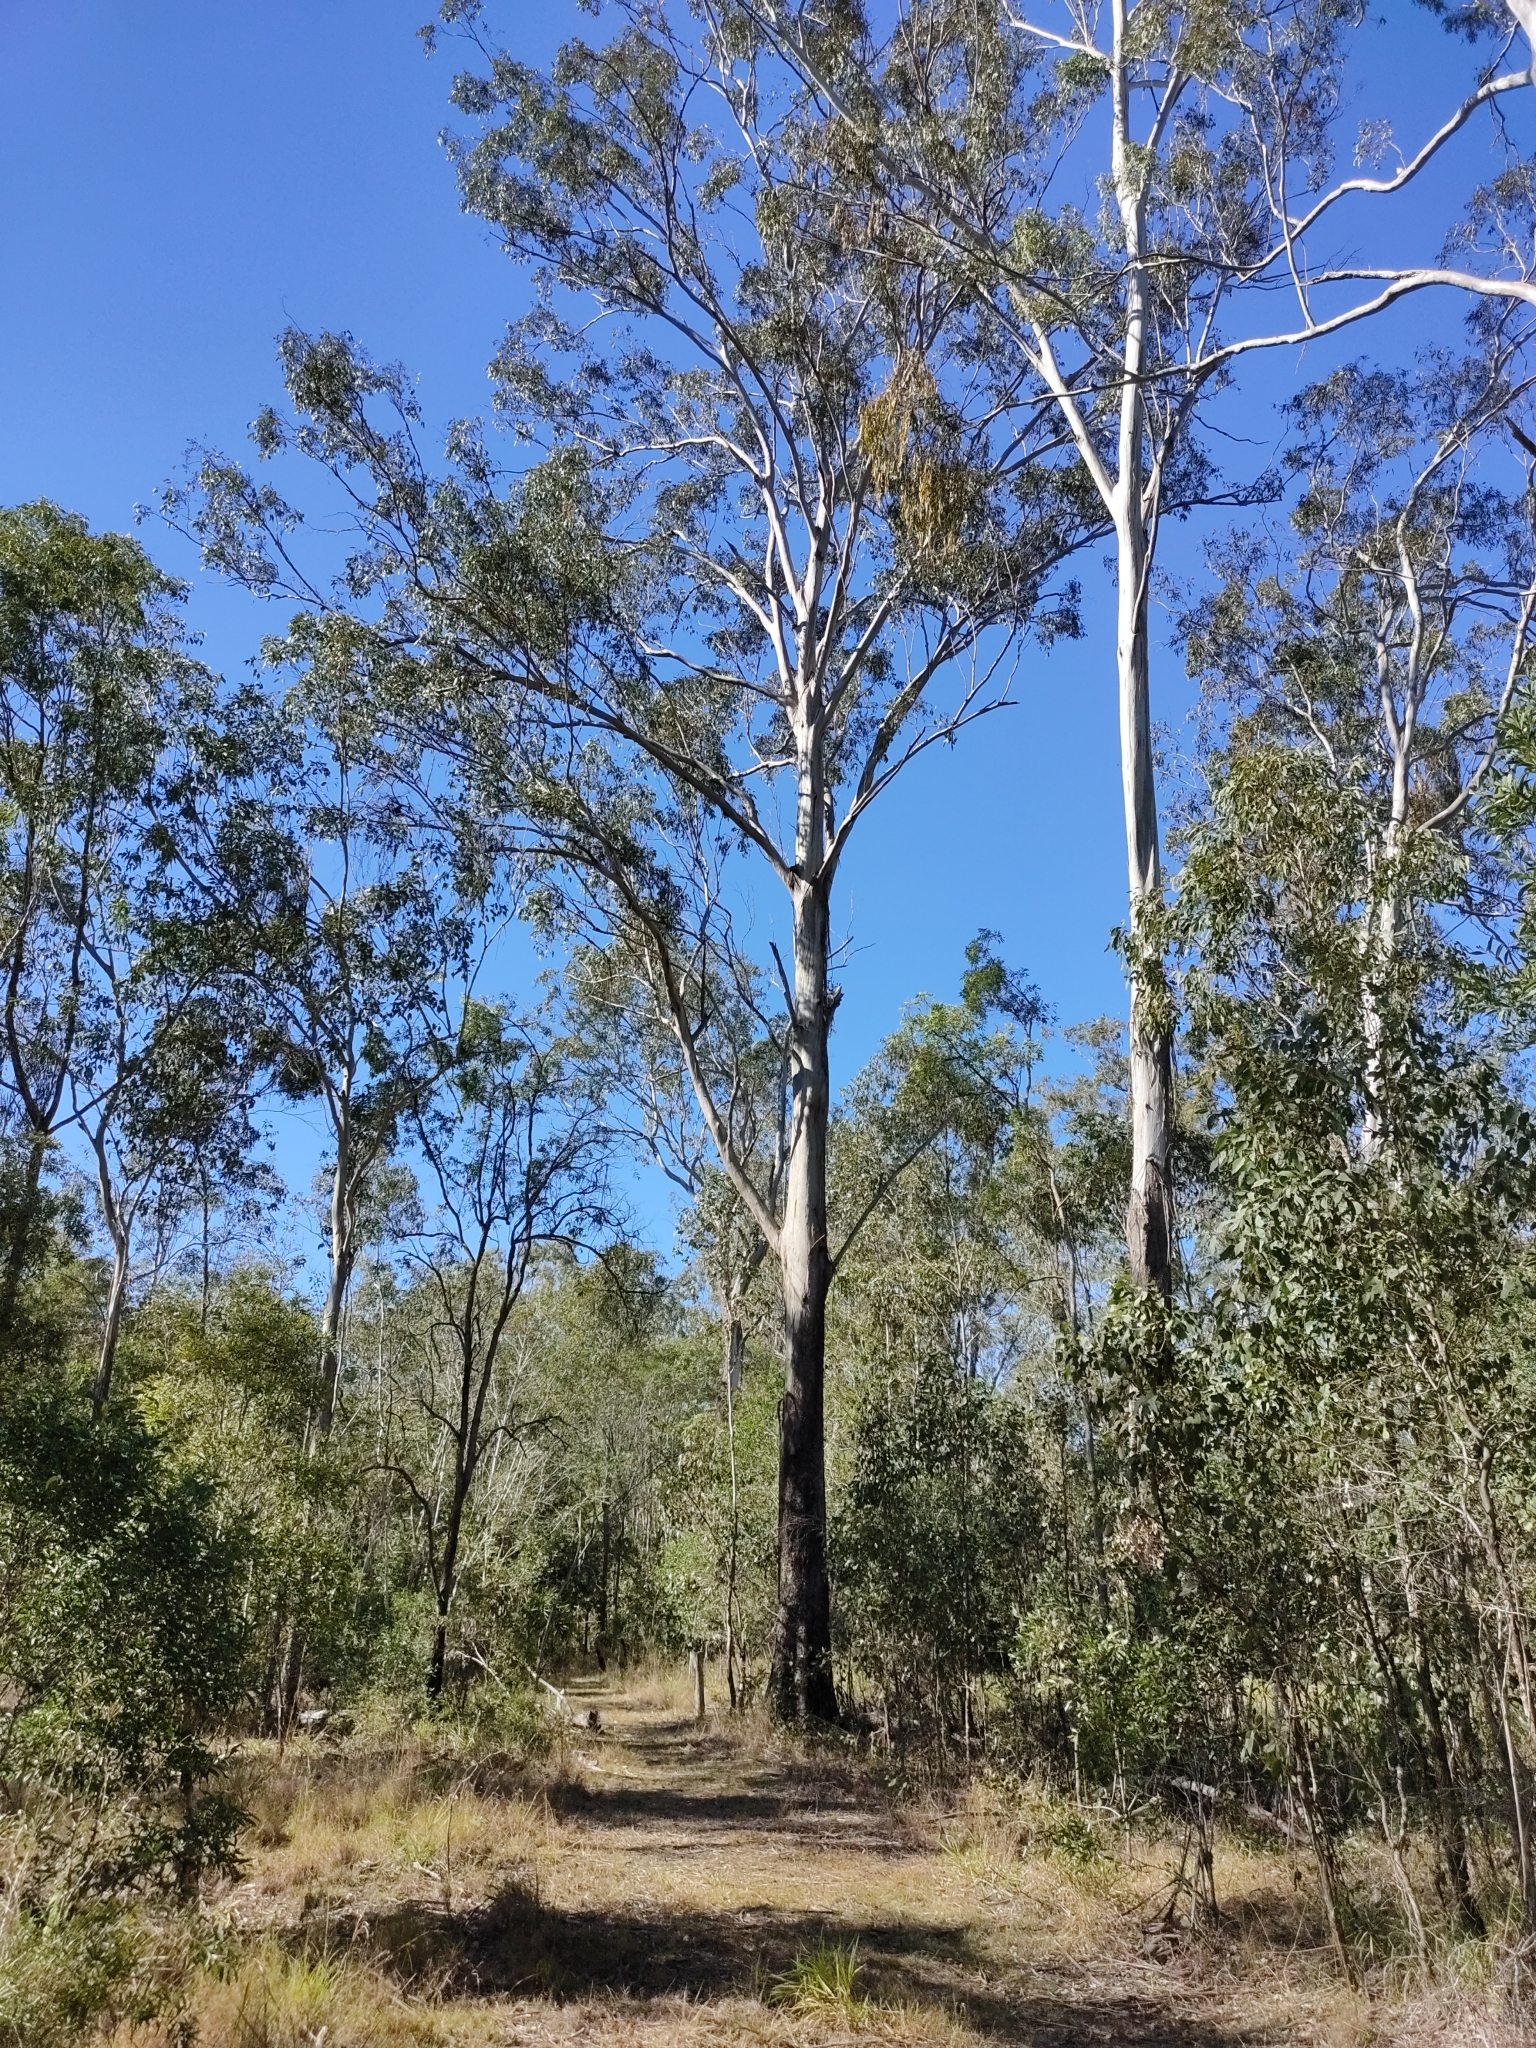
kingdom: Plantae
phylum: Tracheophyta
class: Magnoliopsida
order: Myrtales
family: Myrtaceae
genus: Eucalyptus
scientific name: Eucalyptus moluccana
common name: Grey-box
